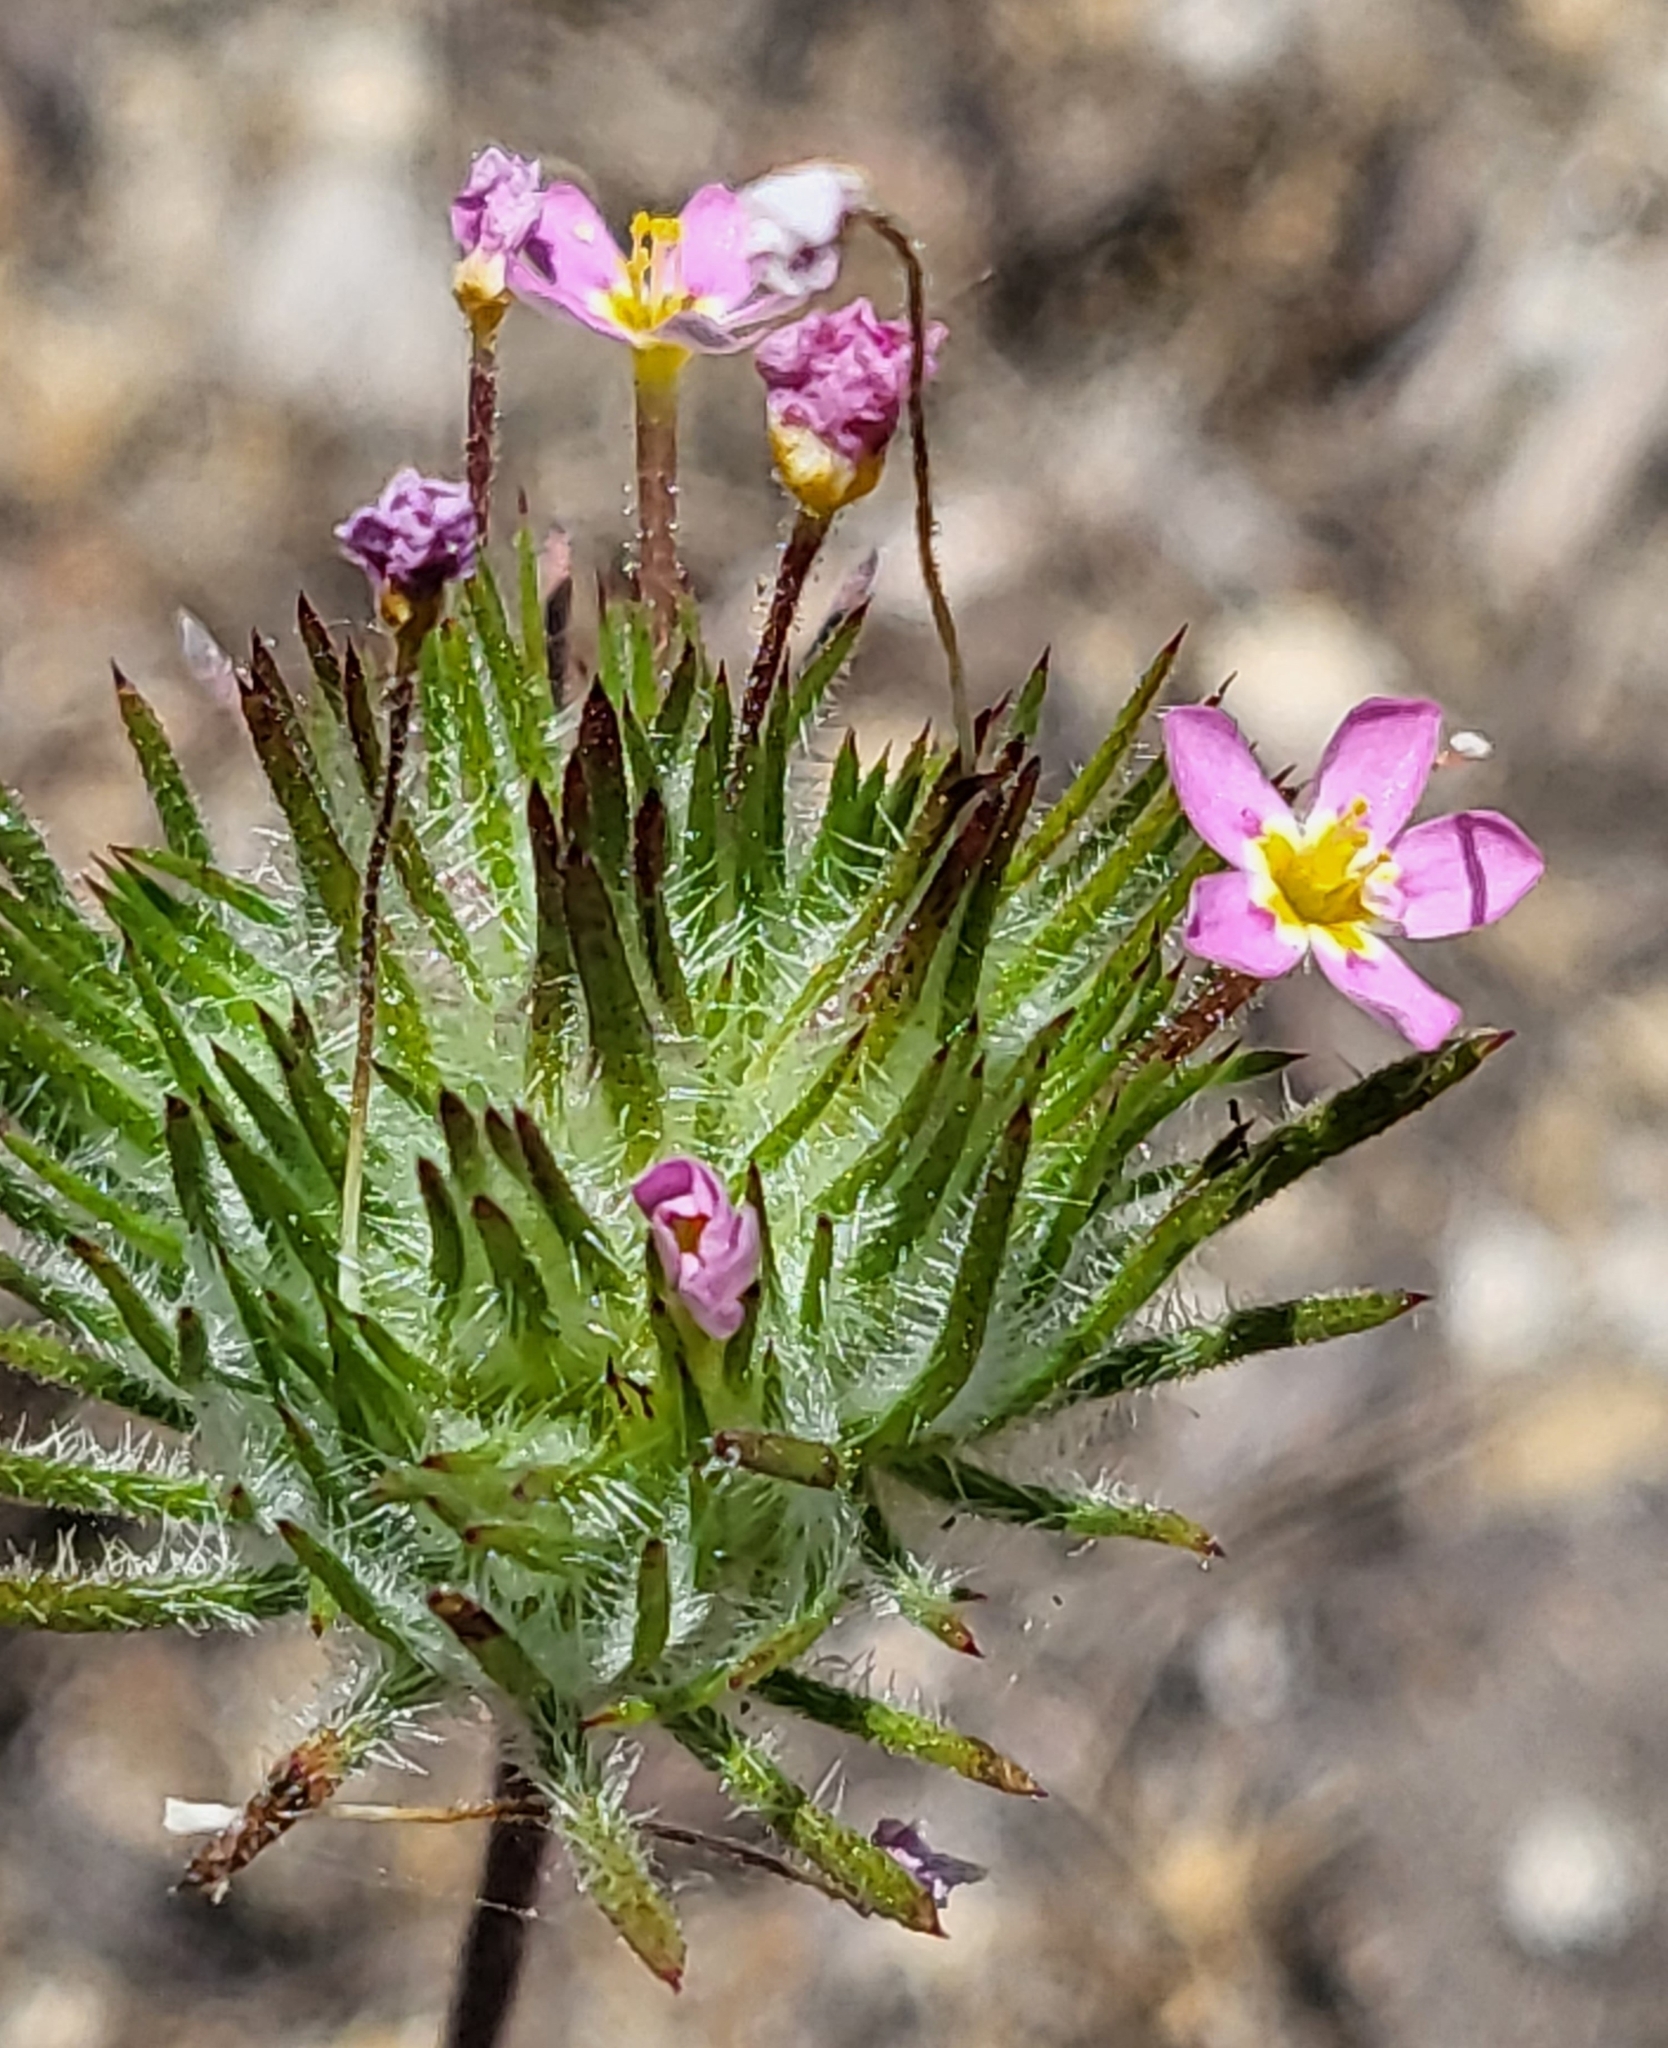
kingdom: Plantae
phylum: Tracheophyta
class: Magnoliopsida
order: Ericales
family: Polemoniaceae
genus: Leptosiphon
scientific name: Leptosiphon ciliatus
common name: Whiskerbrush
